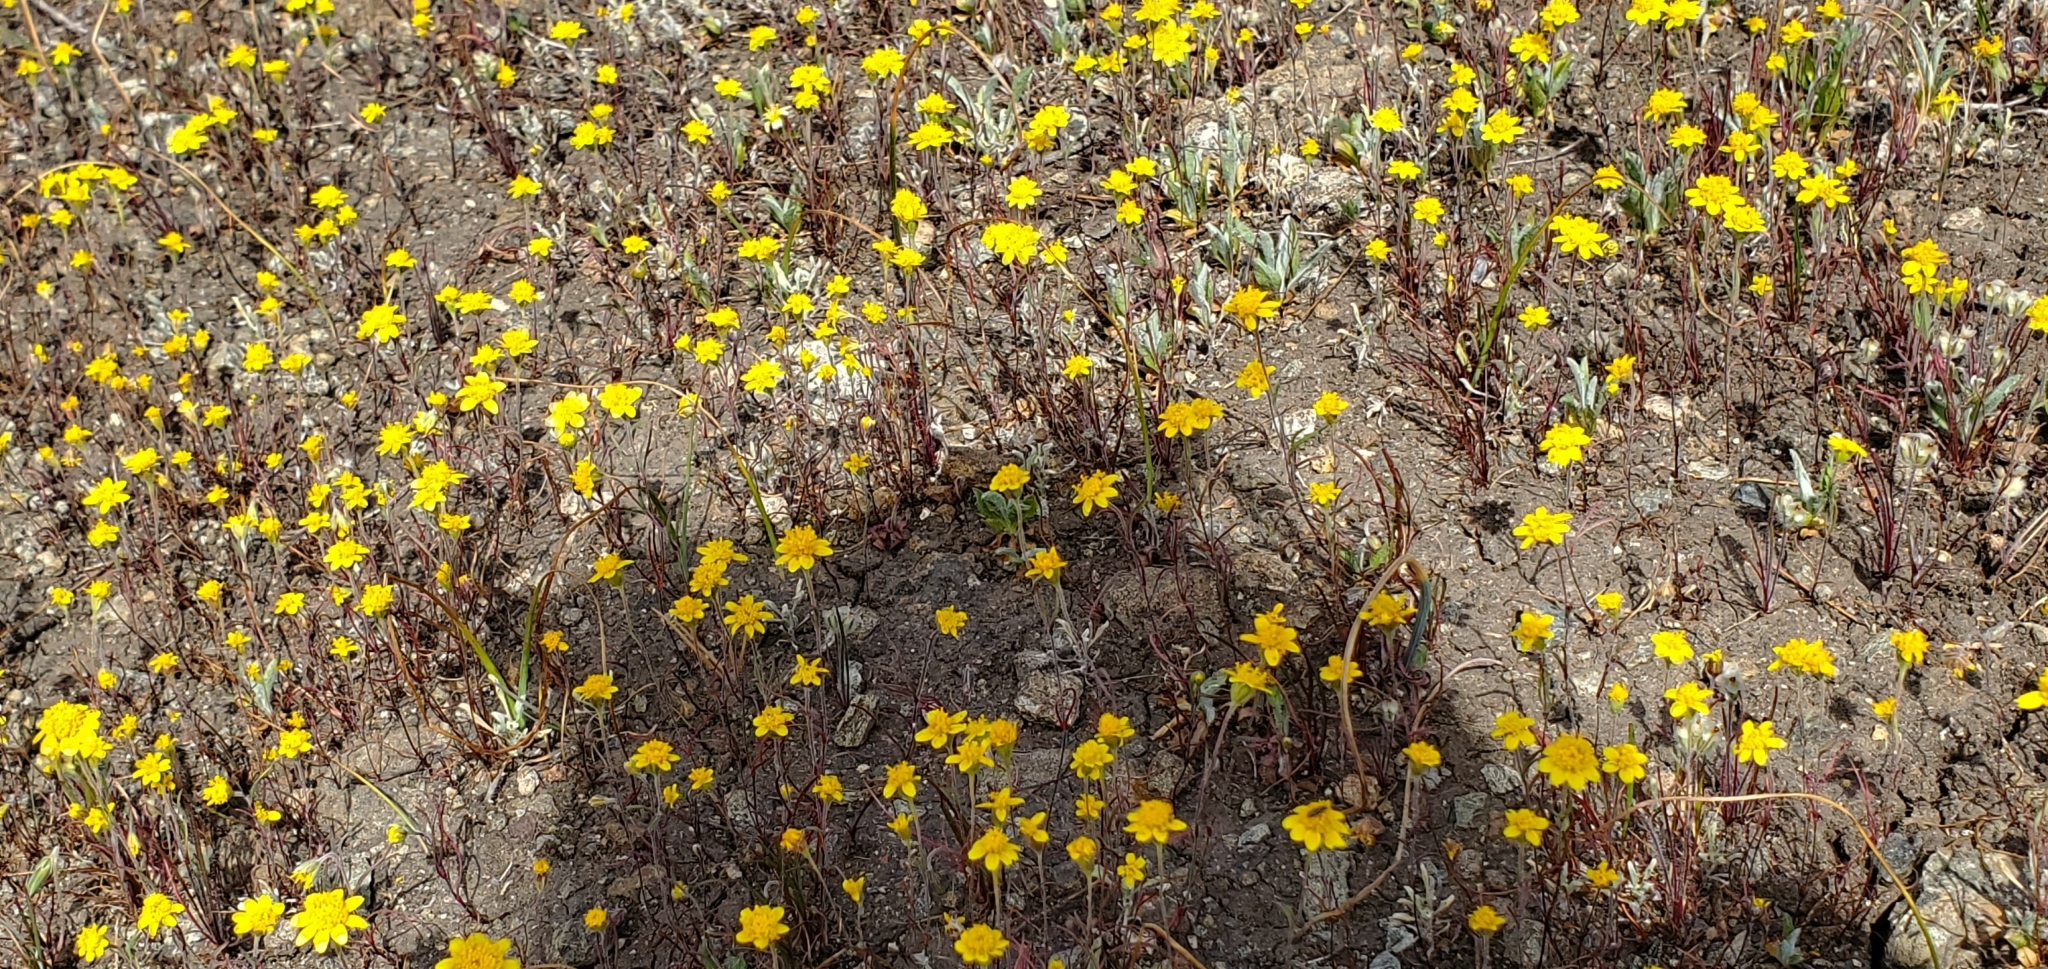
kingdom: Plantae
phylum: Tracheophyta
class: Magnoliopsida
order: Asterales
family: Asteraceae
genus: Lasthenia
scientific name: Lasthenia californica
